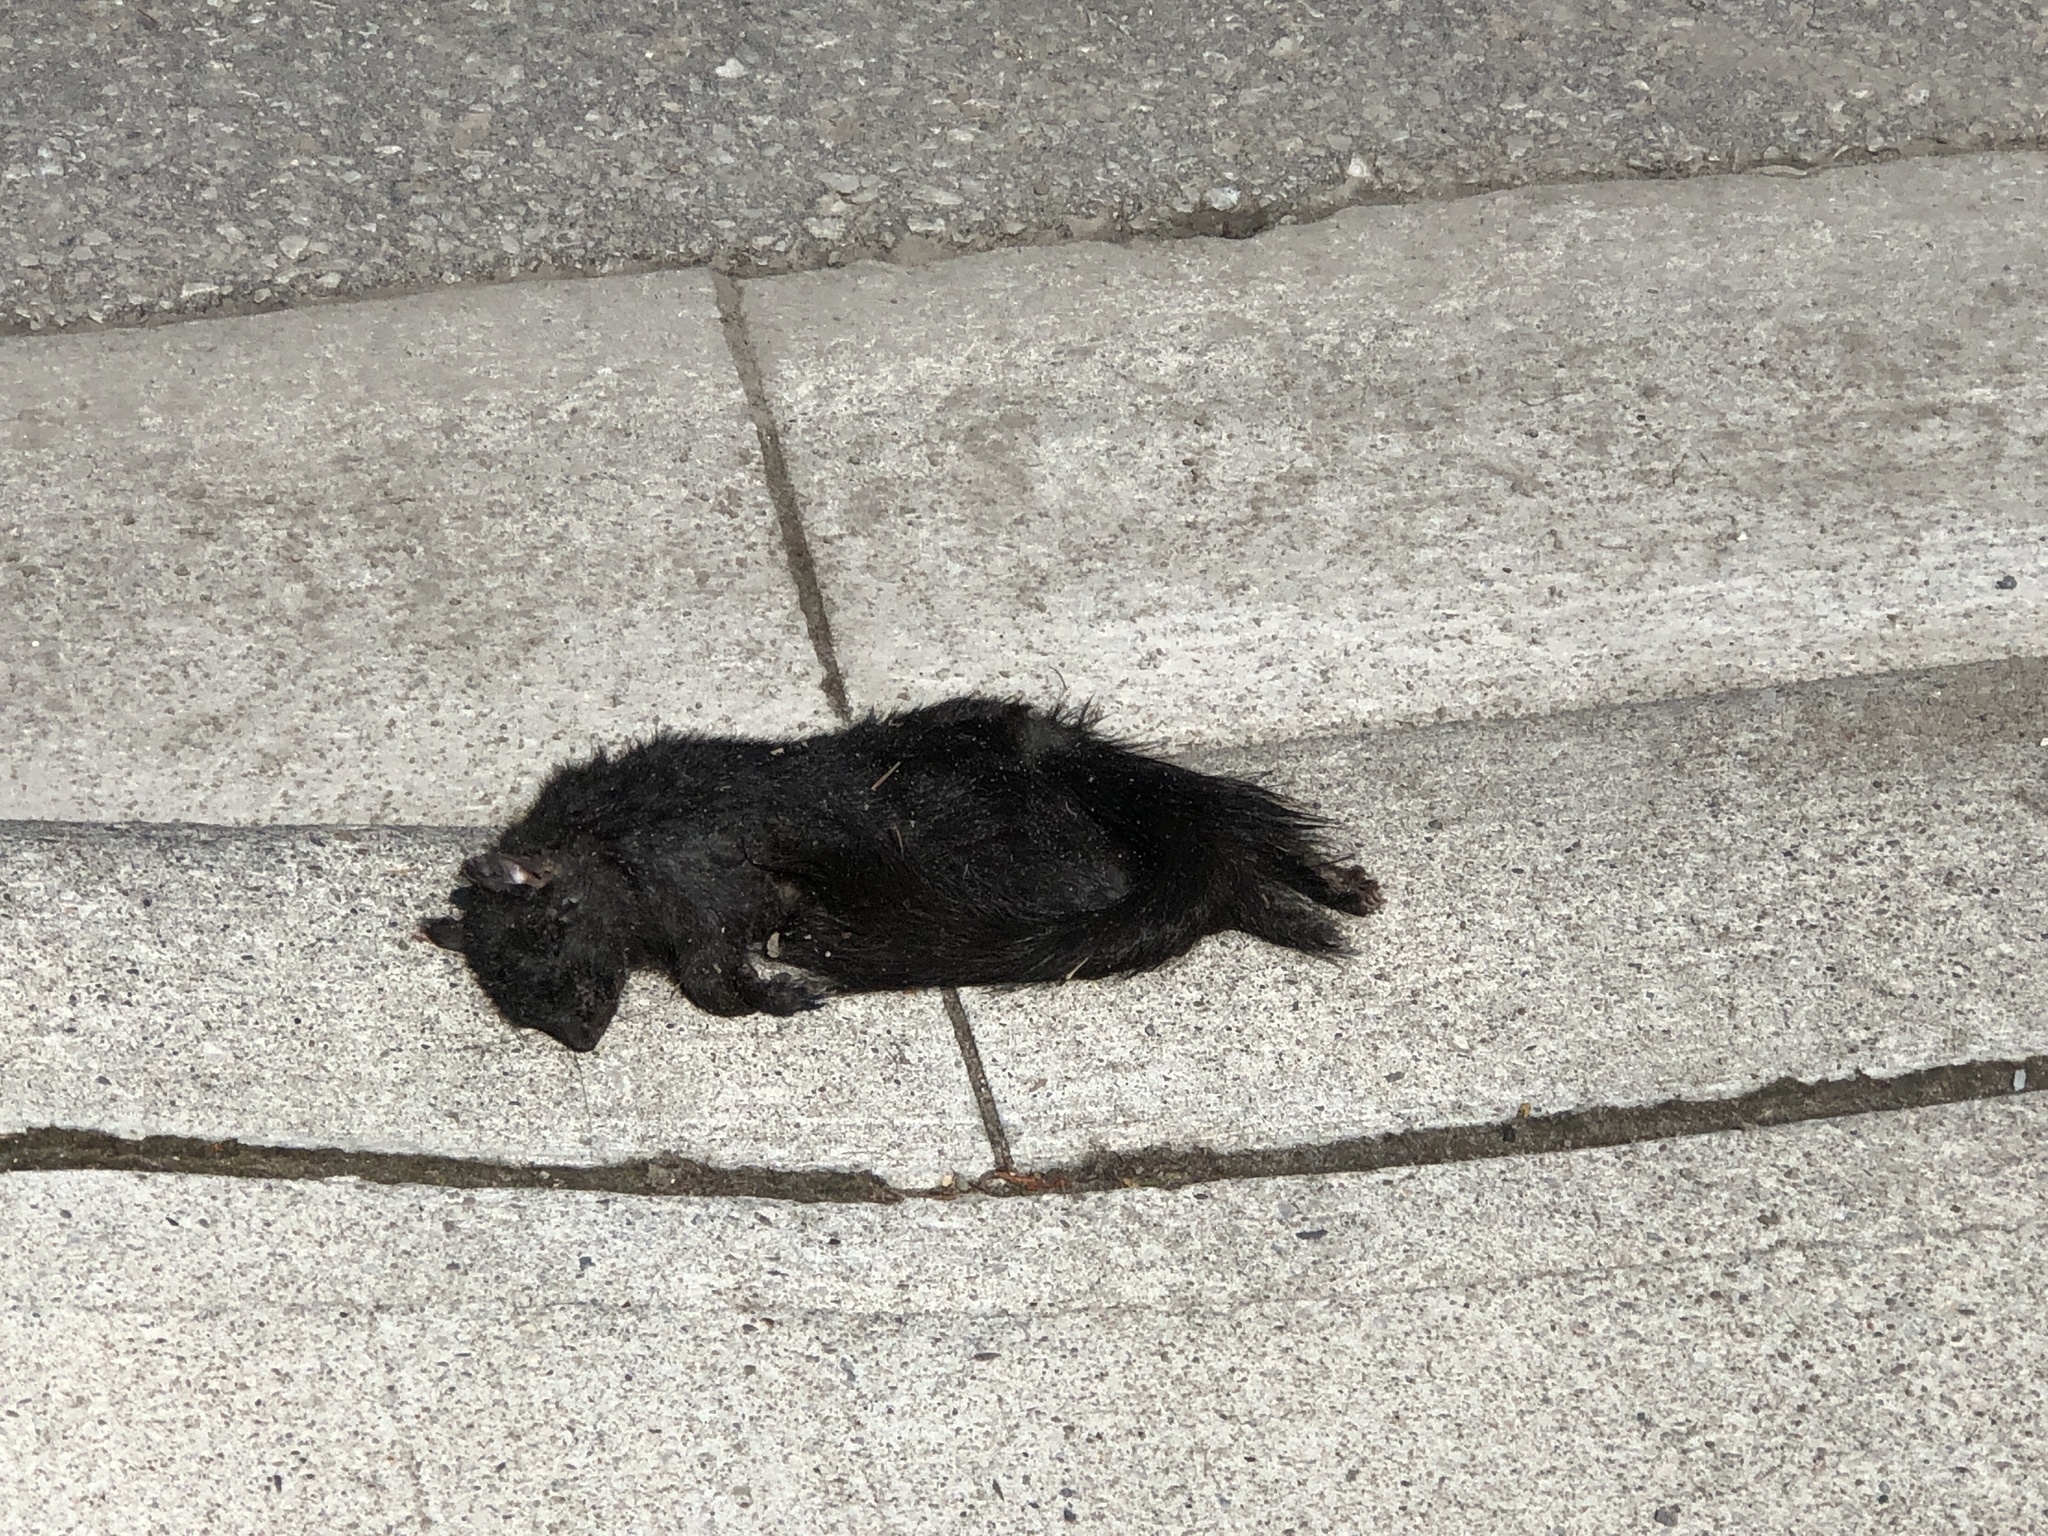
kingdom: Animalia
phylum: Chordata
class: Mammalia
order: Rodentia
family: Sciuridae
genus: Sciurus
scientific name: Sciurus carolinensis
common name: Eastern gray squirrel
